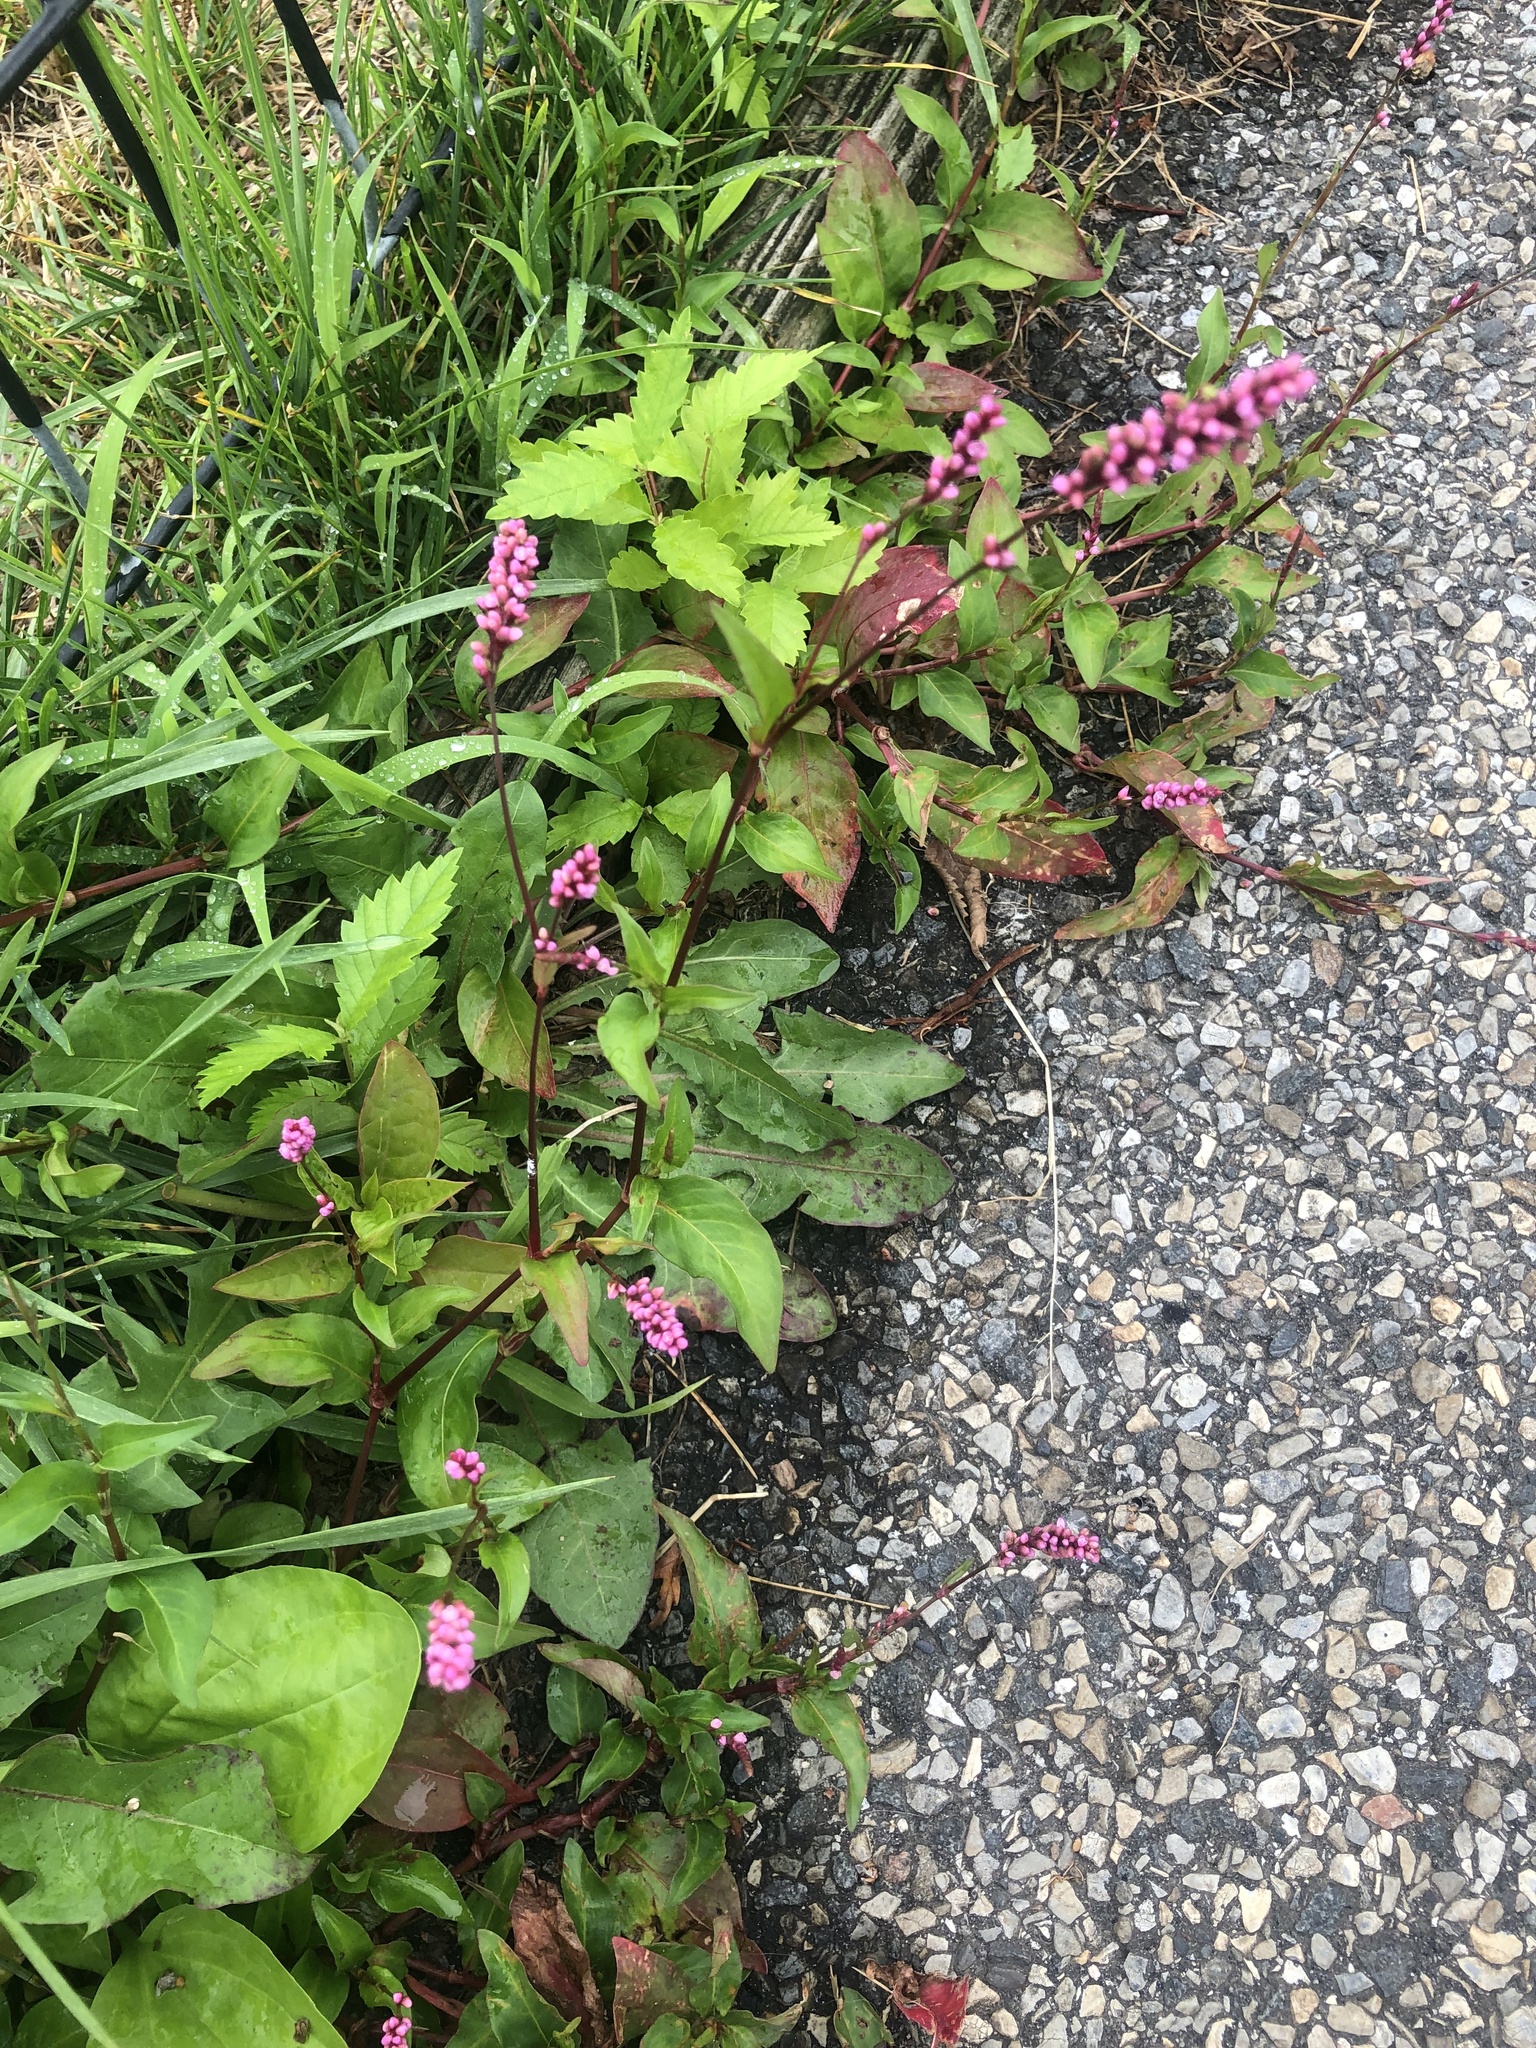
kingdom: Plantae
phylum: Tracheophyta
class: Magnoliopsida
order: Caryophyllales
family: Polygonaceae
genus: Persicaria
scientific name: Persicaria longiseta
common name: Bristly lady's-thumb
